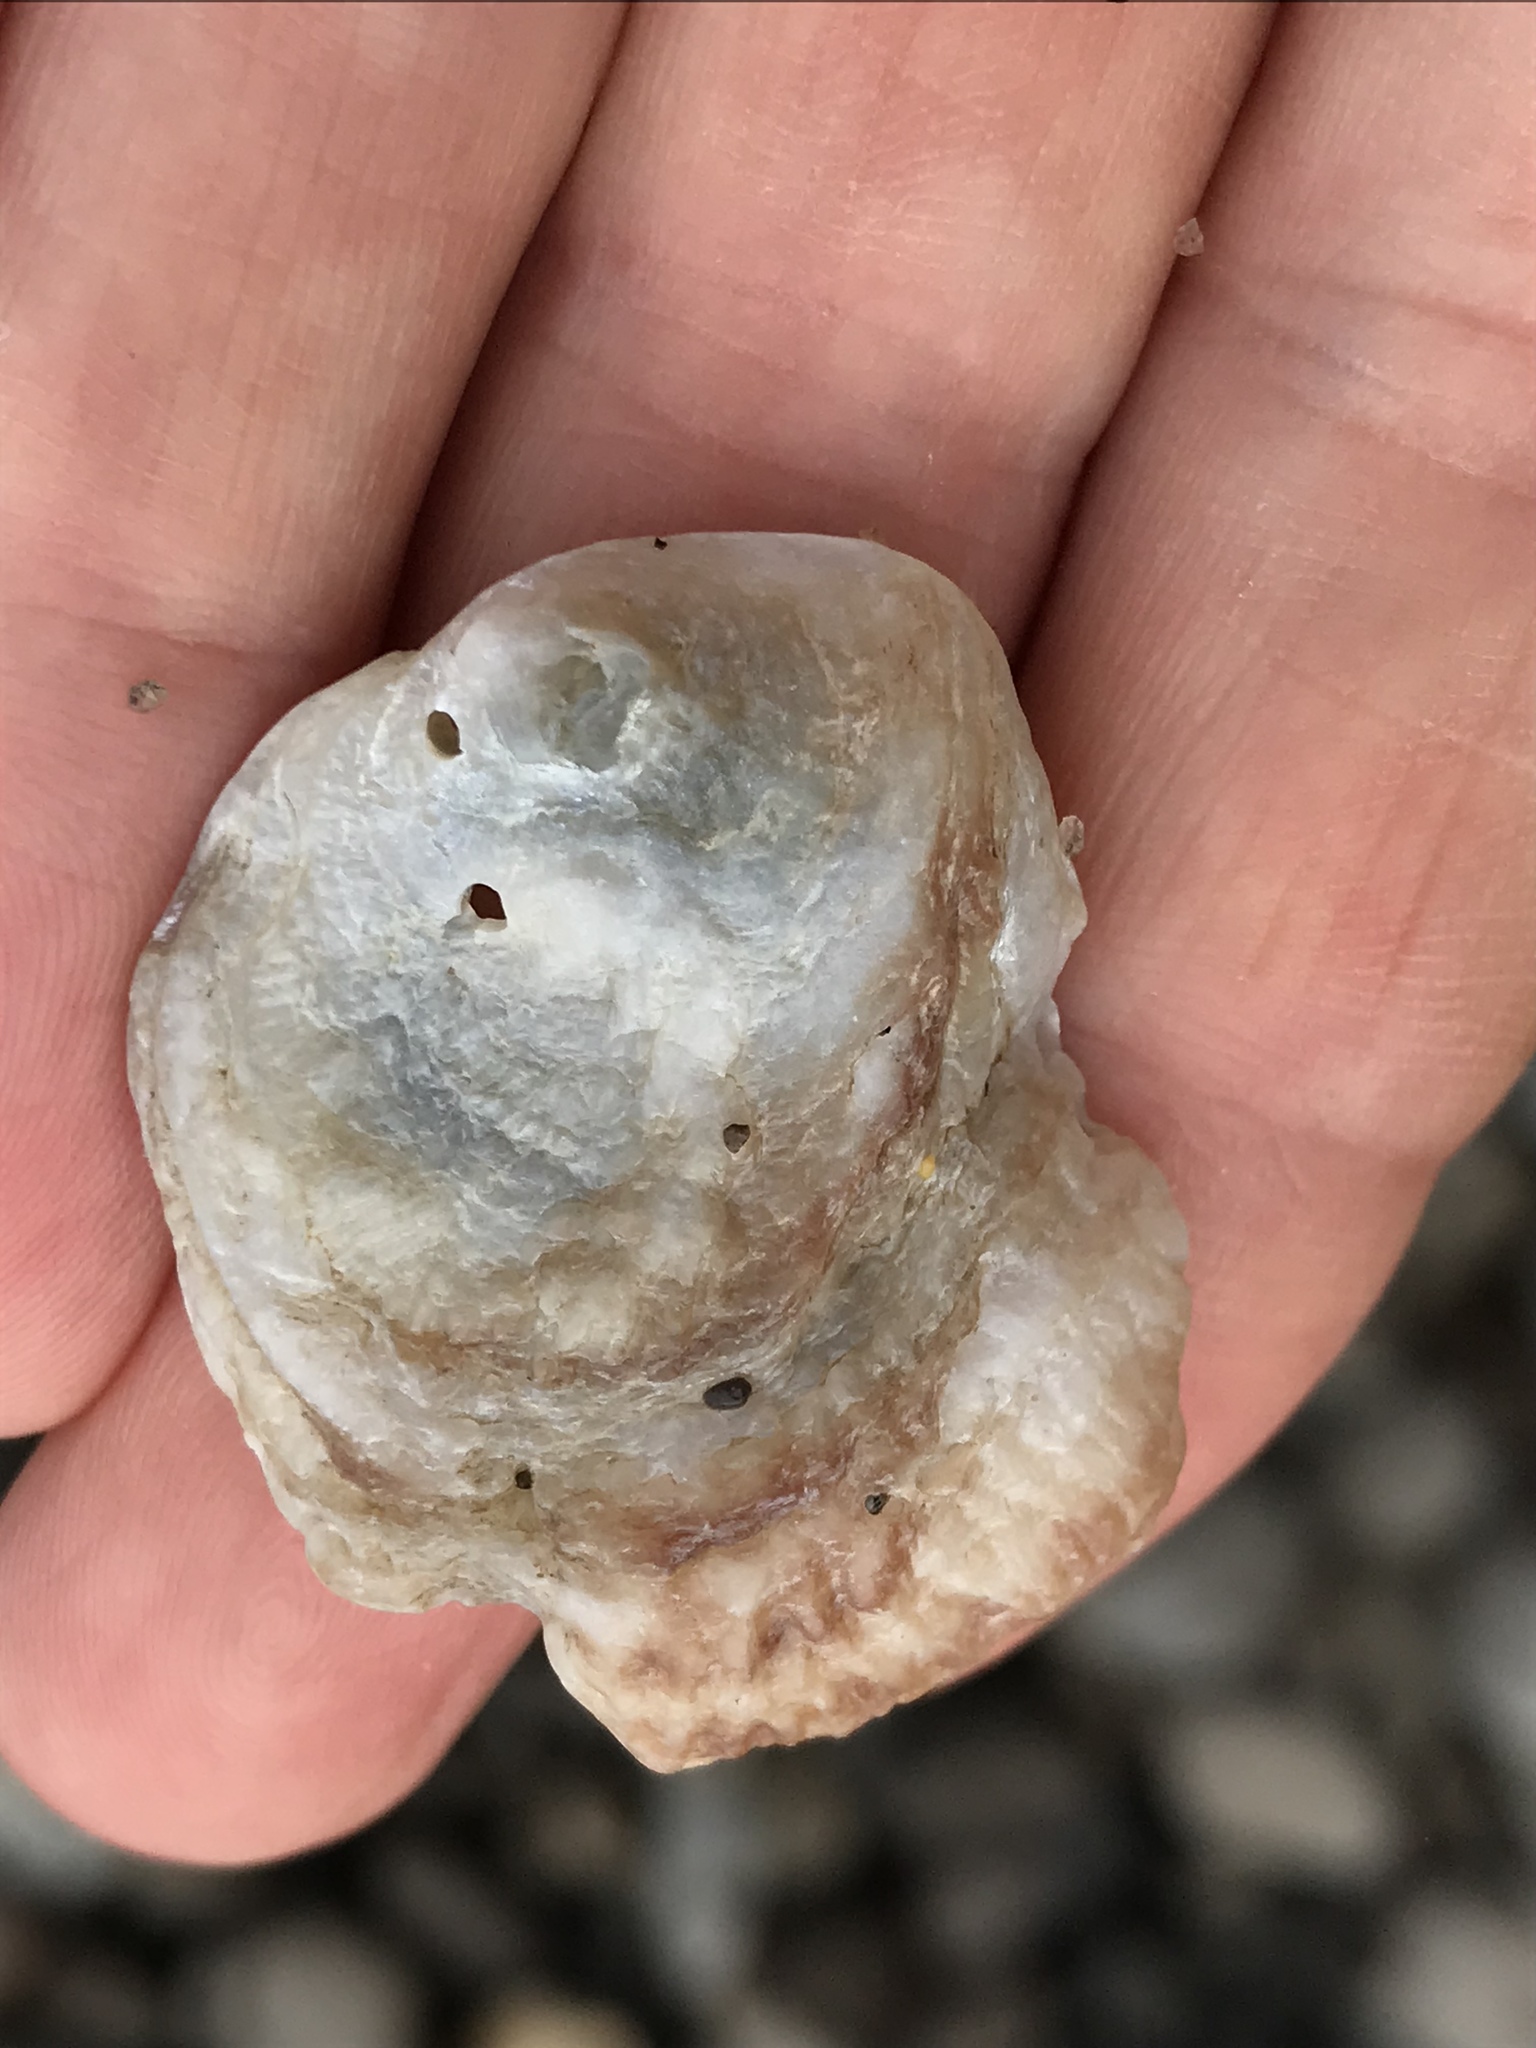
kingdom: Animalia
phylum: Mollusca
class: Bivalvia
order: Pectinida
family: Anomiidae
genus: Pododesmus
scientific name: Pododesmus macrochisma
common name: Alaska jingle
